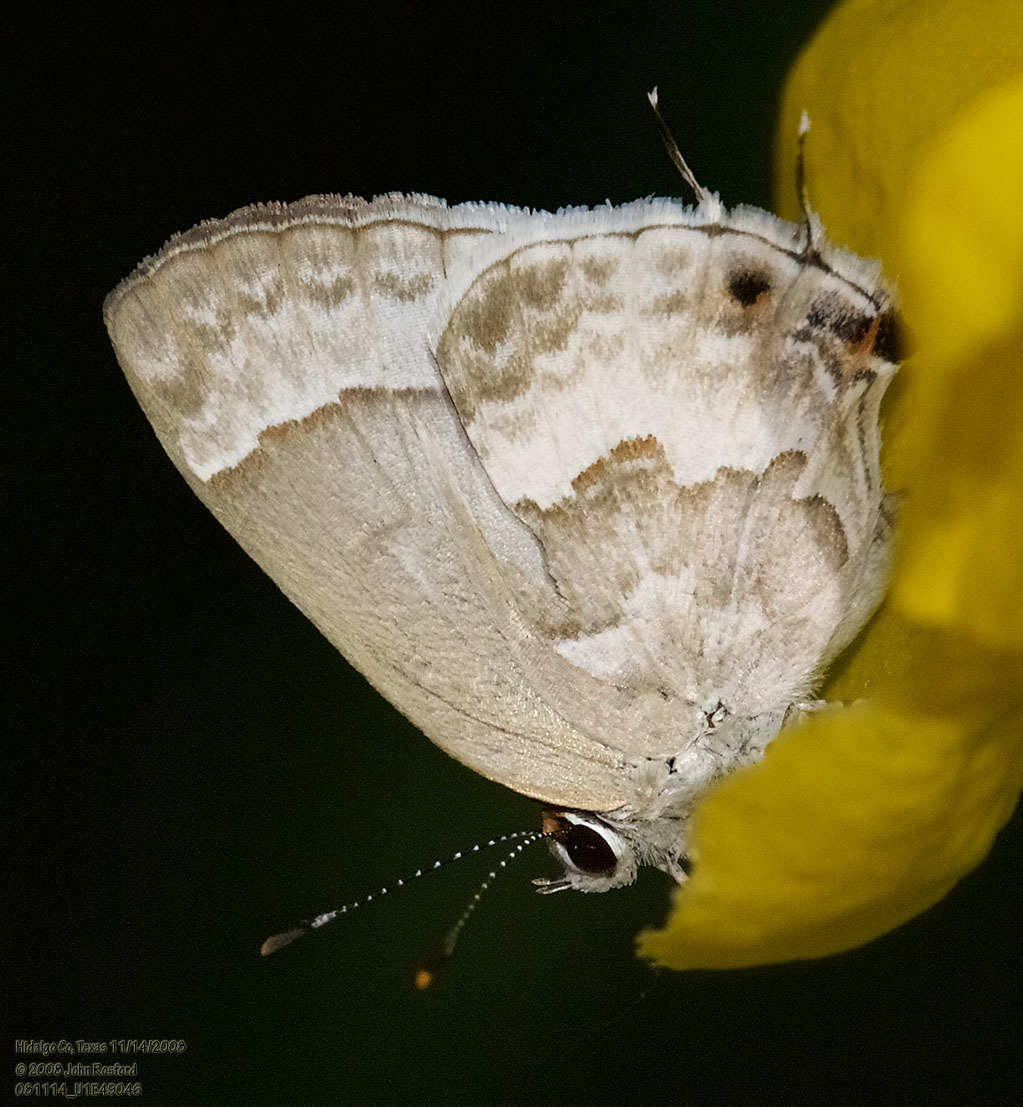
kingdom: Animalia
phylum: Arthropoda
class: Insecta
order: Lepidoptera
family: Lycaenidae
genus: Strymon
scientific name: Strymon albata
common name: White scrub-hairstreak
